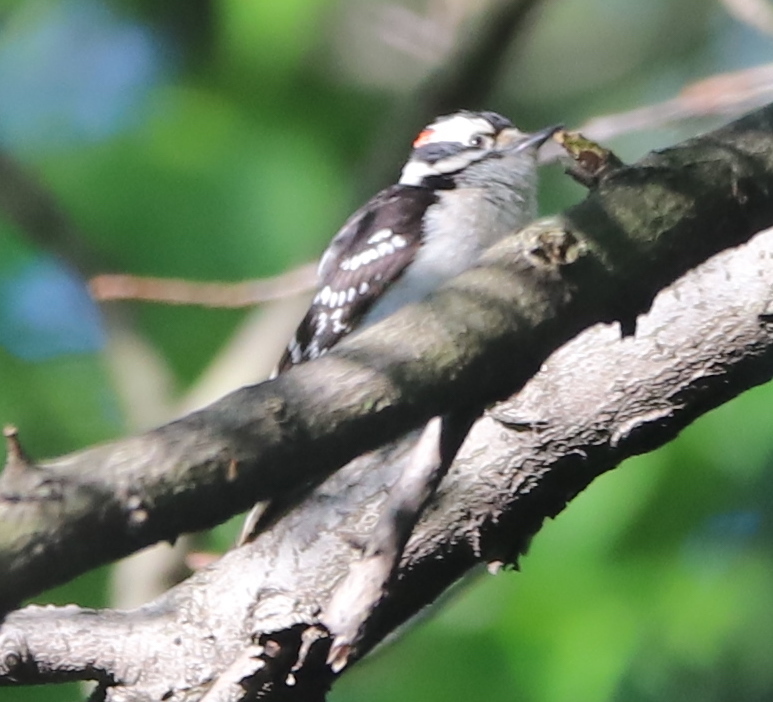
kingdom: Animalia
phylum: Chordata
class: Aves
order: Piciformes
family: Picidae
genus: Dryobates
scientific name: Dryobates pubescens
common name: Downy woodpecker
